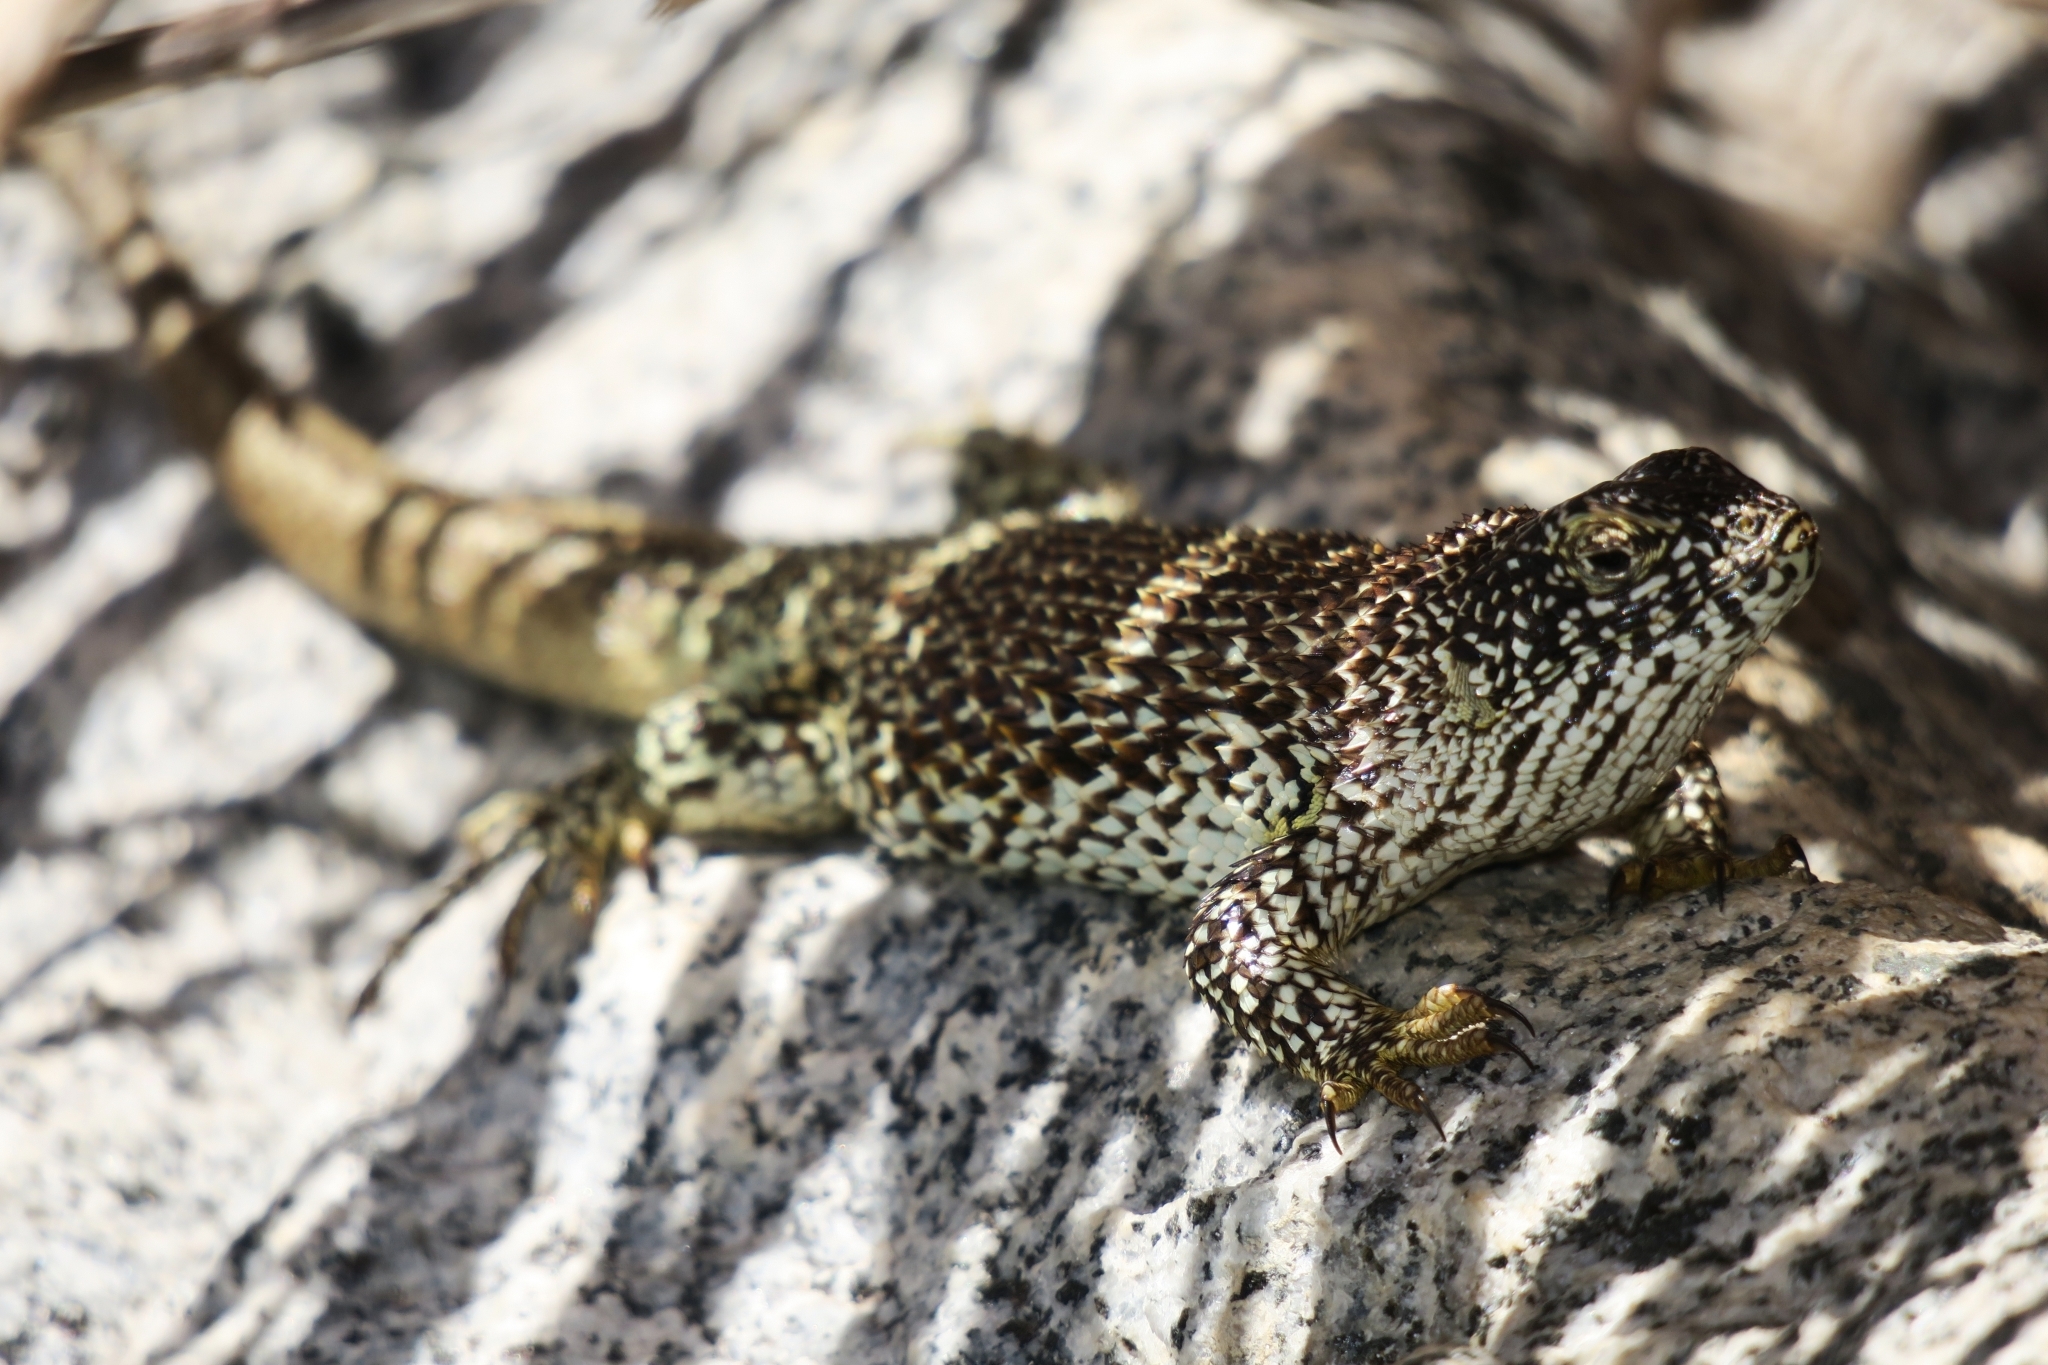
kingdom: Animalia
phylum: Chordata
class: Squamata
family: Liolaemidae
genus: Liolaemus
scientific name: Liolaemus nitidus
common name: Shining tree iguana
